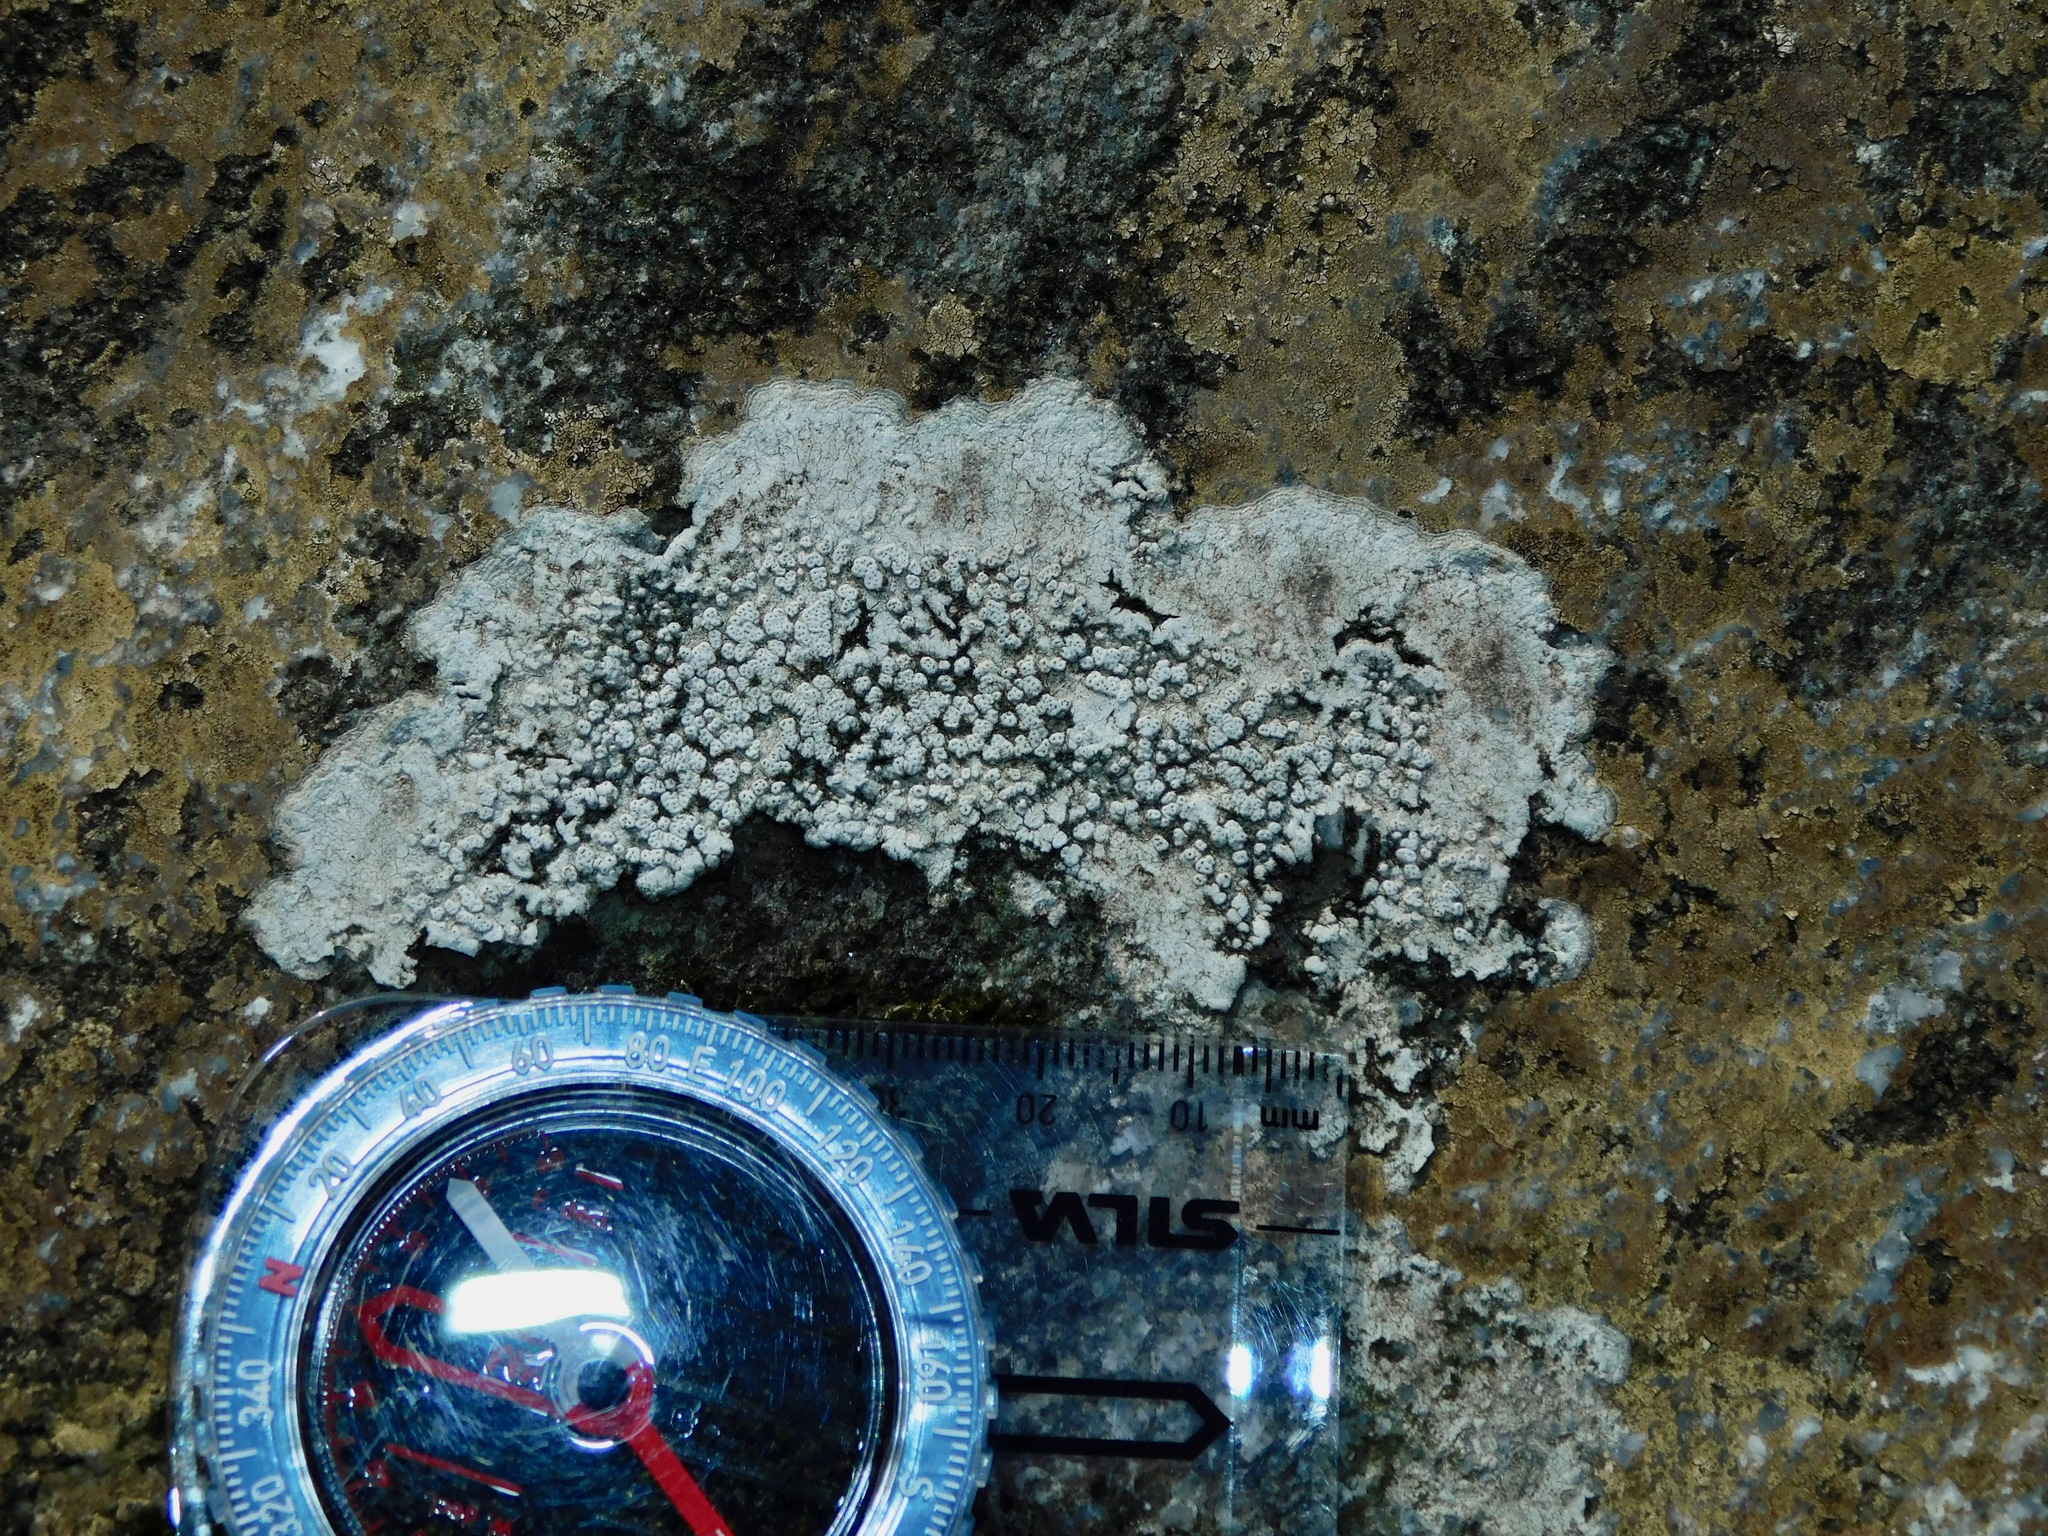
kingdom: Fungi
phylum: Ascomycota
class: Eurotiomycetes
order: Verrucariales
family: Adelococcaceae
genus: Sagediopsis
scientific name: Sagediopsis aquatica
